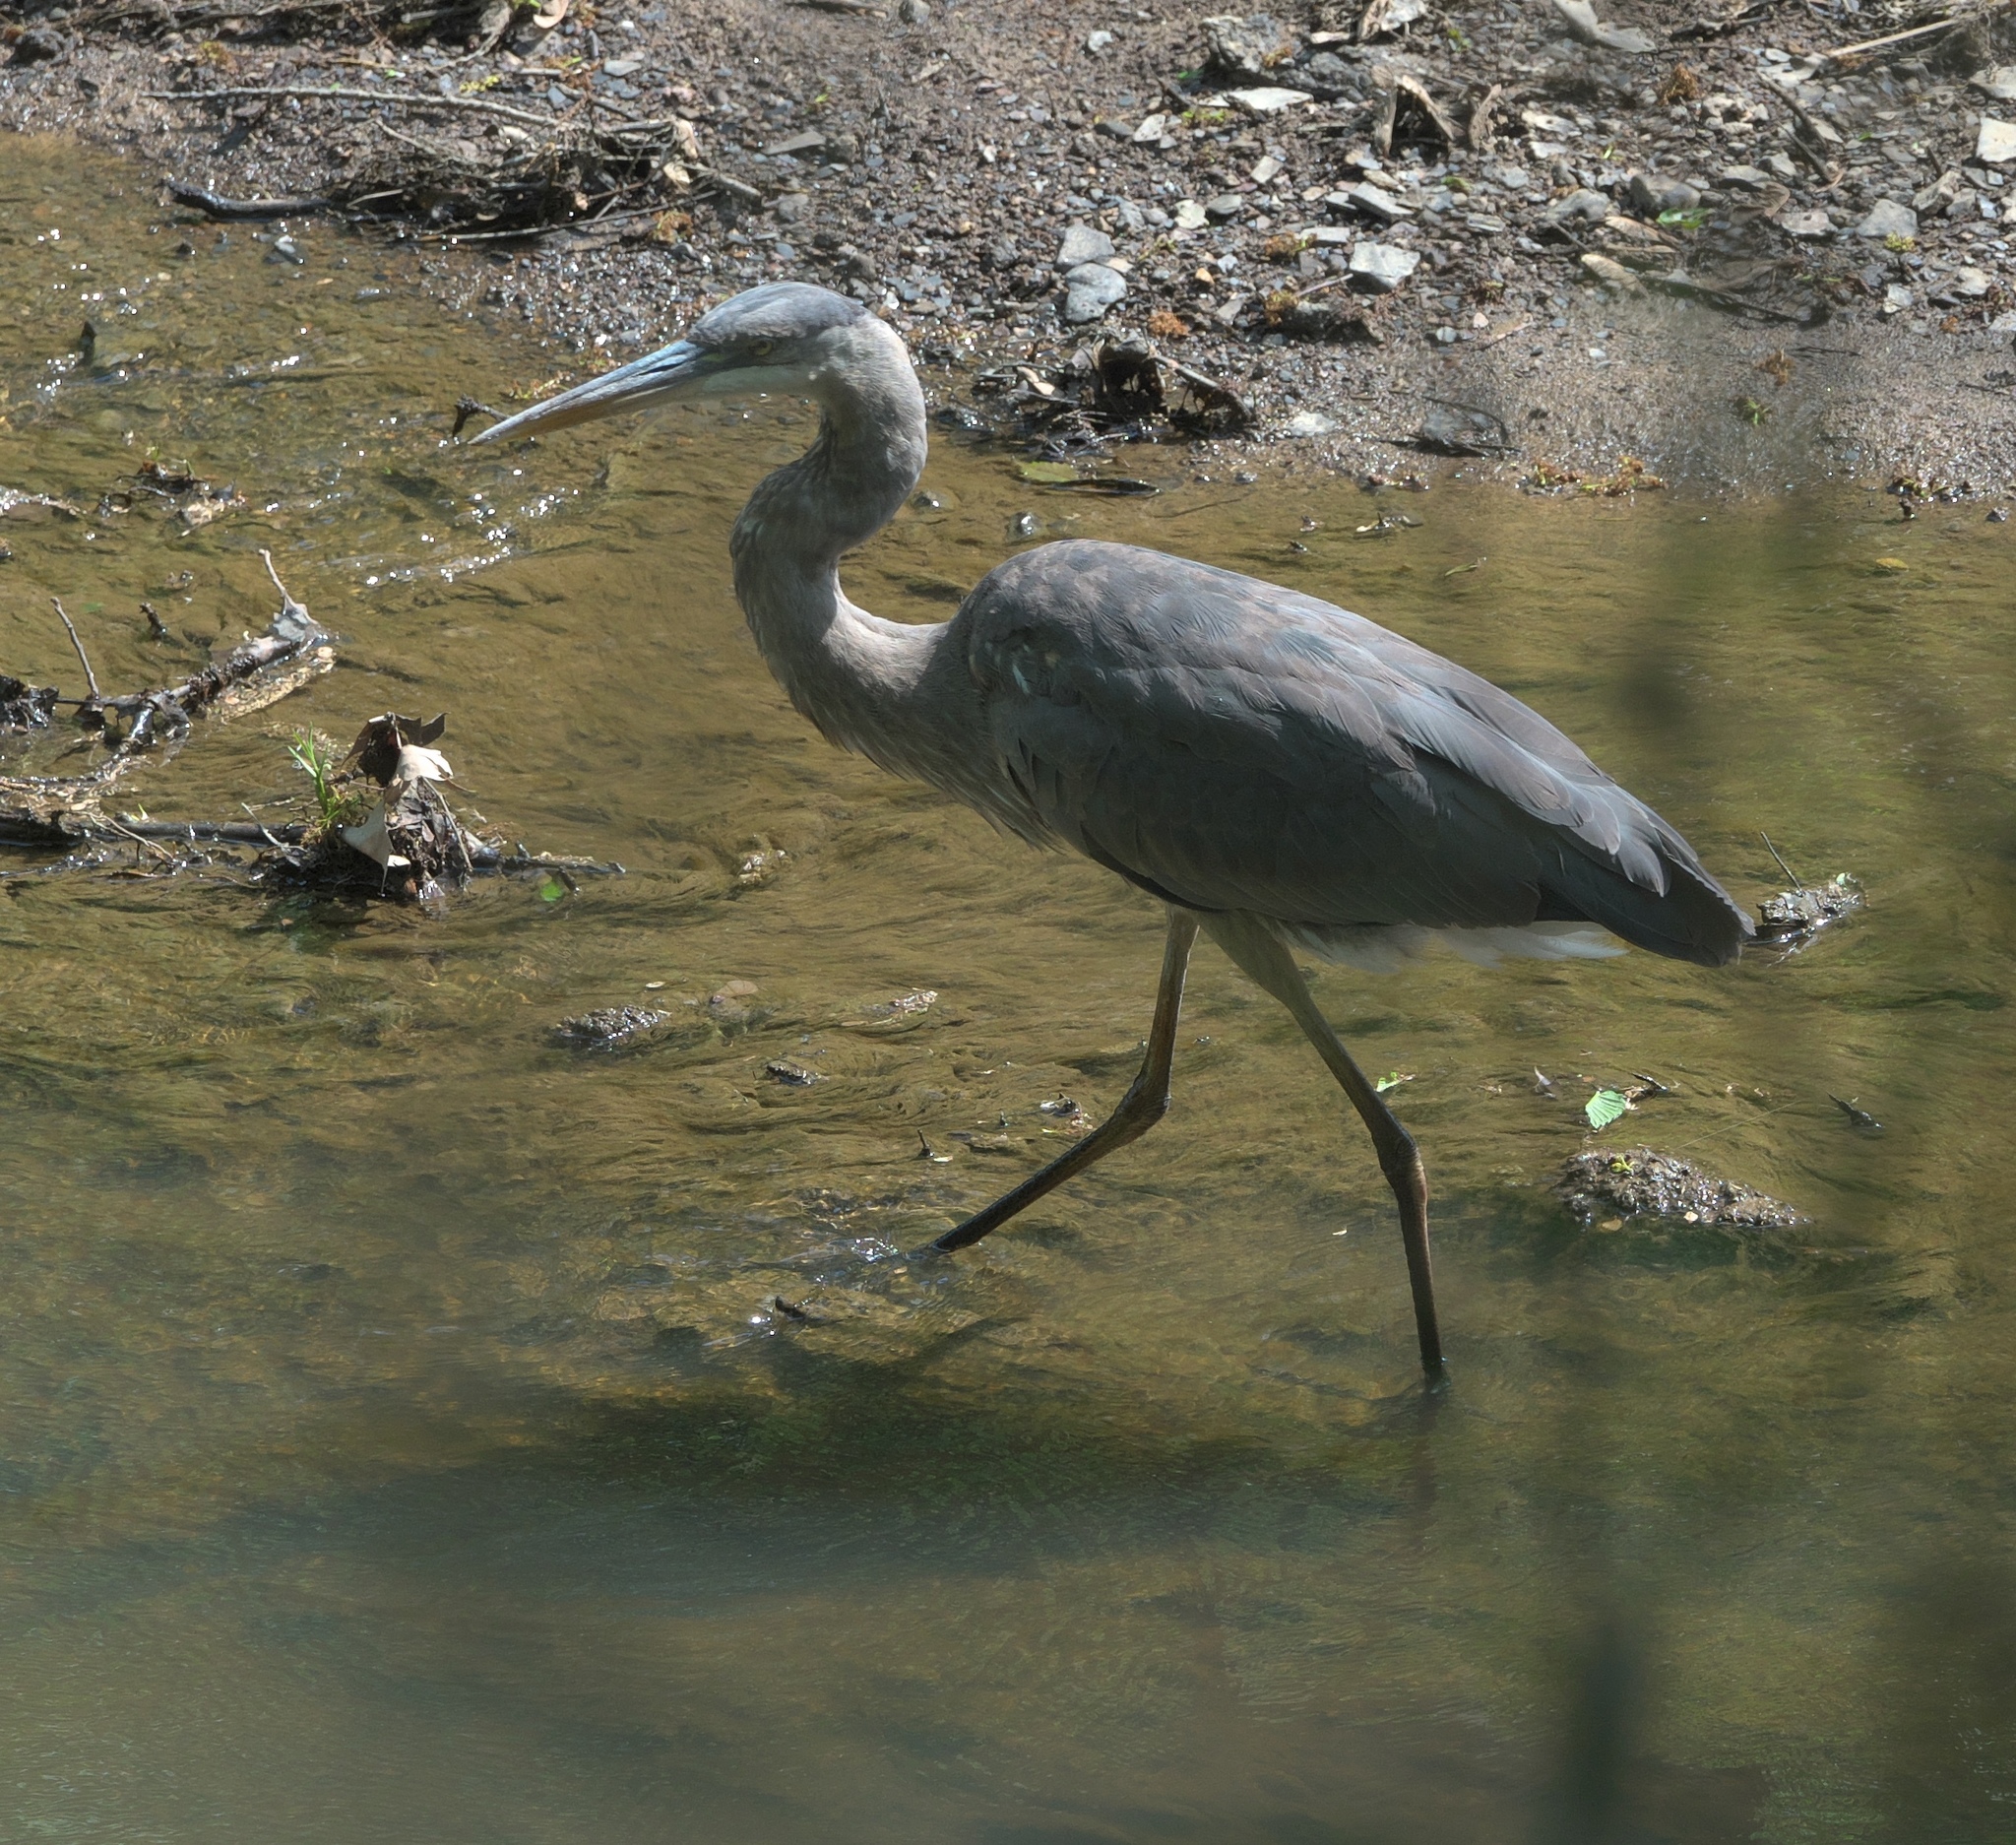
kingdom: Animalia
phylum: Chordata
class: Aves
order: Pelecaniformes
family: Ardeidae
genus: Ardea
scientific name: Ardea herodias
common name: Great blue heron
